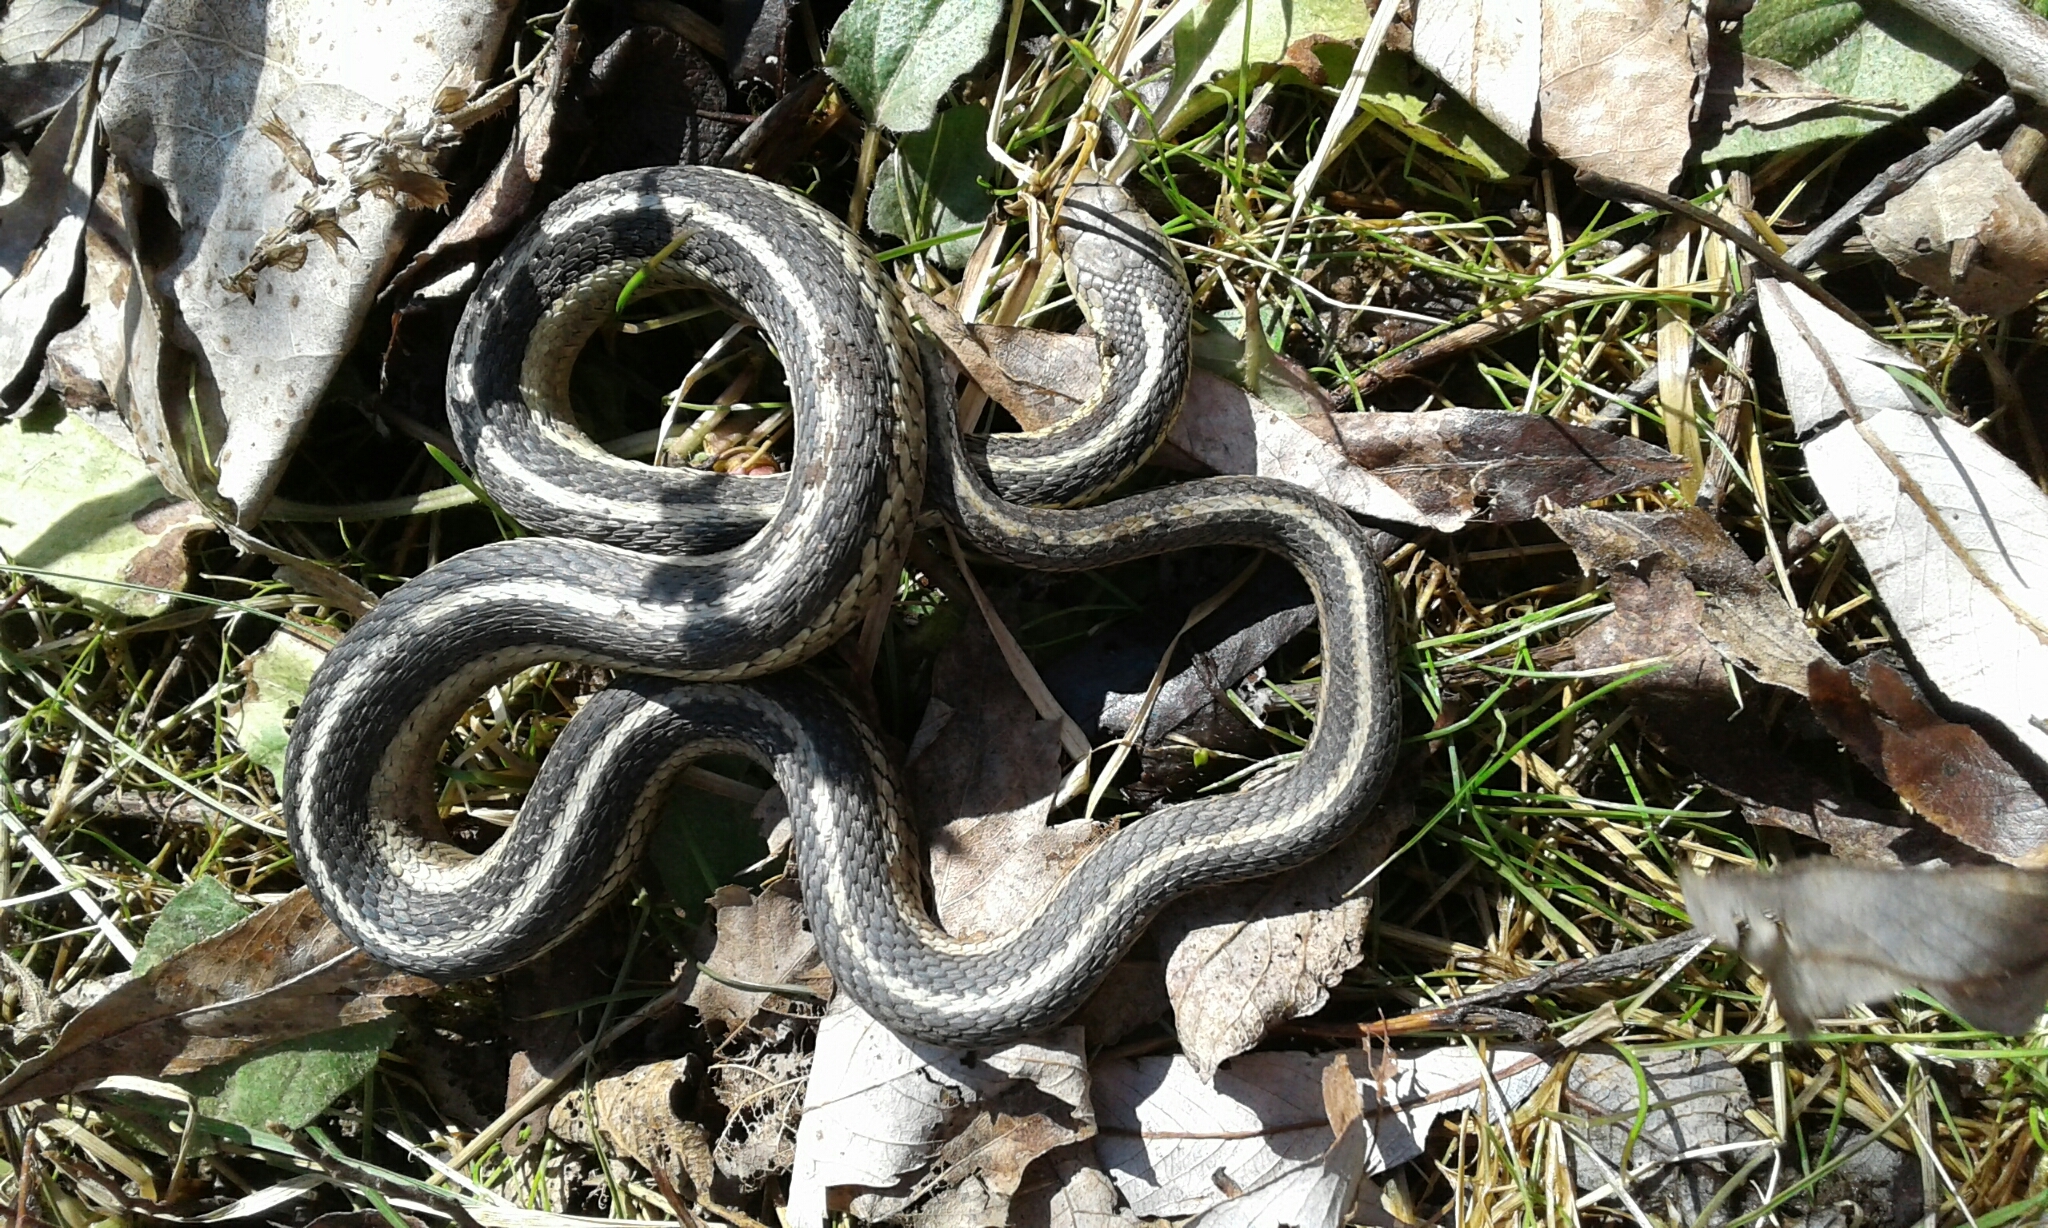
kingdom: Animalia
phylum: Chordata
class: Squamata
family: Colubridae
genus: Thamnophis
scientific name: Thamnophis sirtalis
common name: Common garter snake
